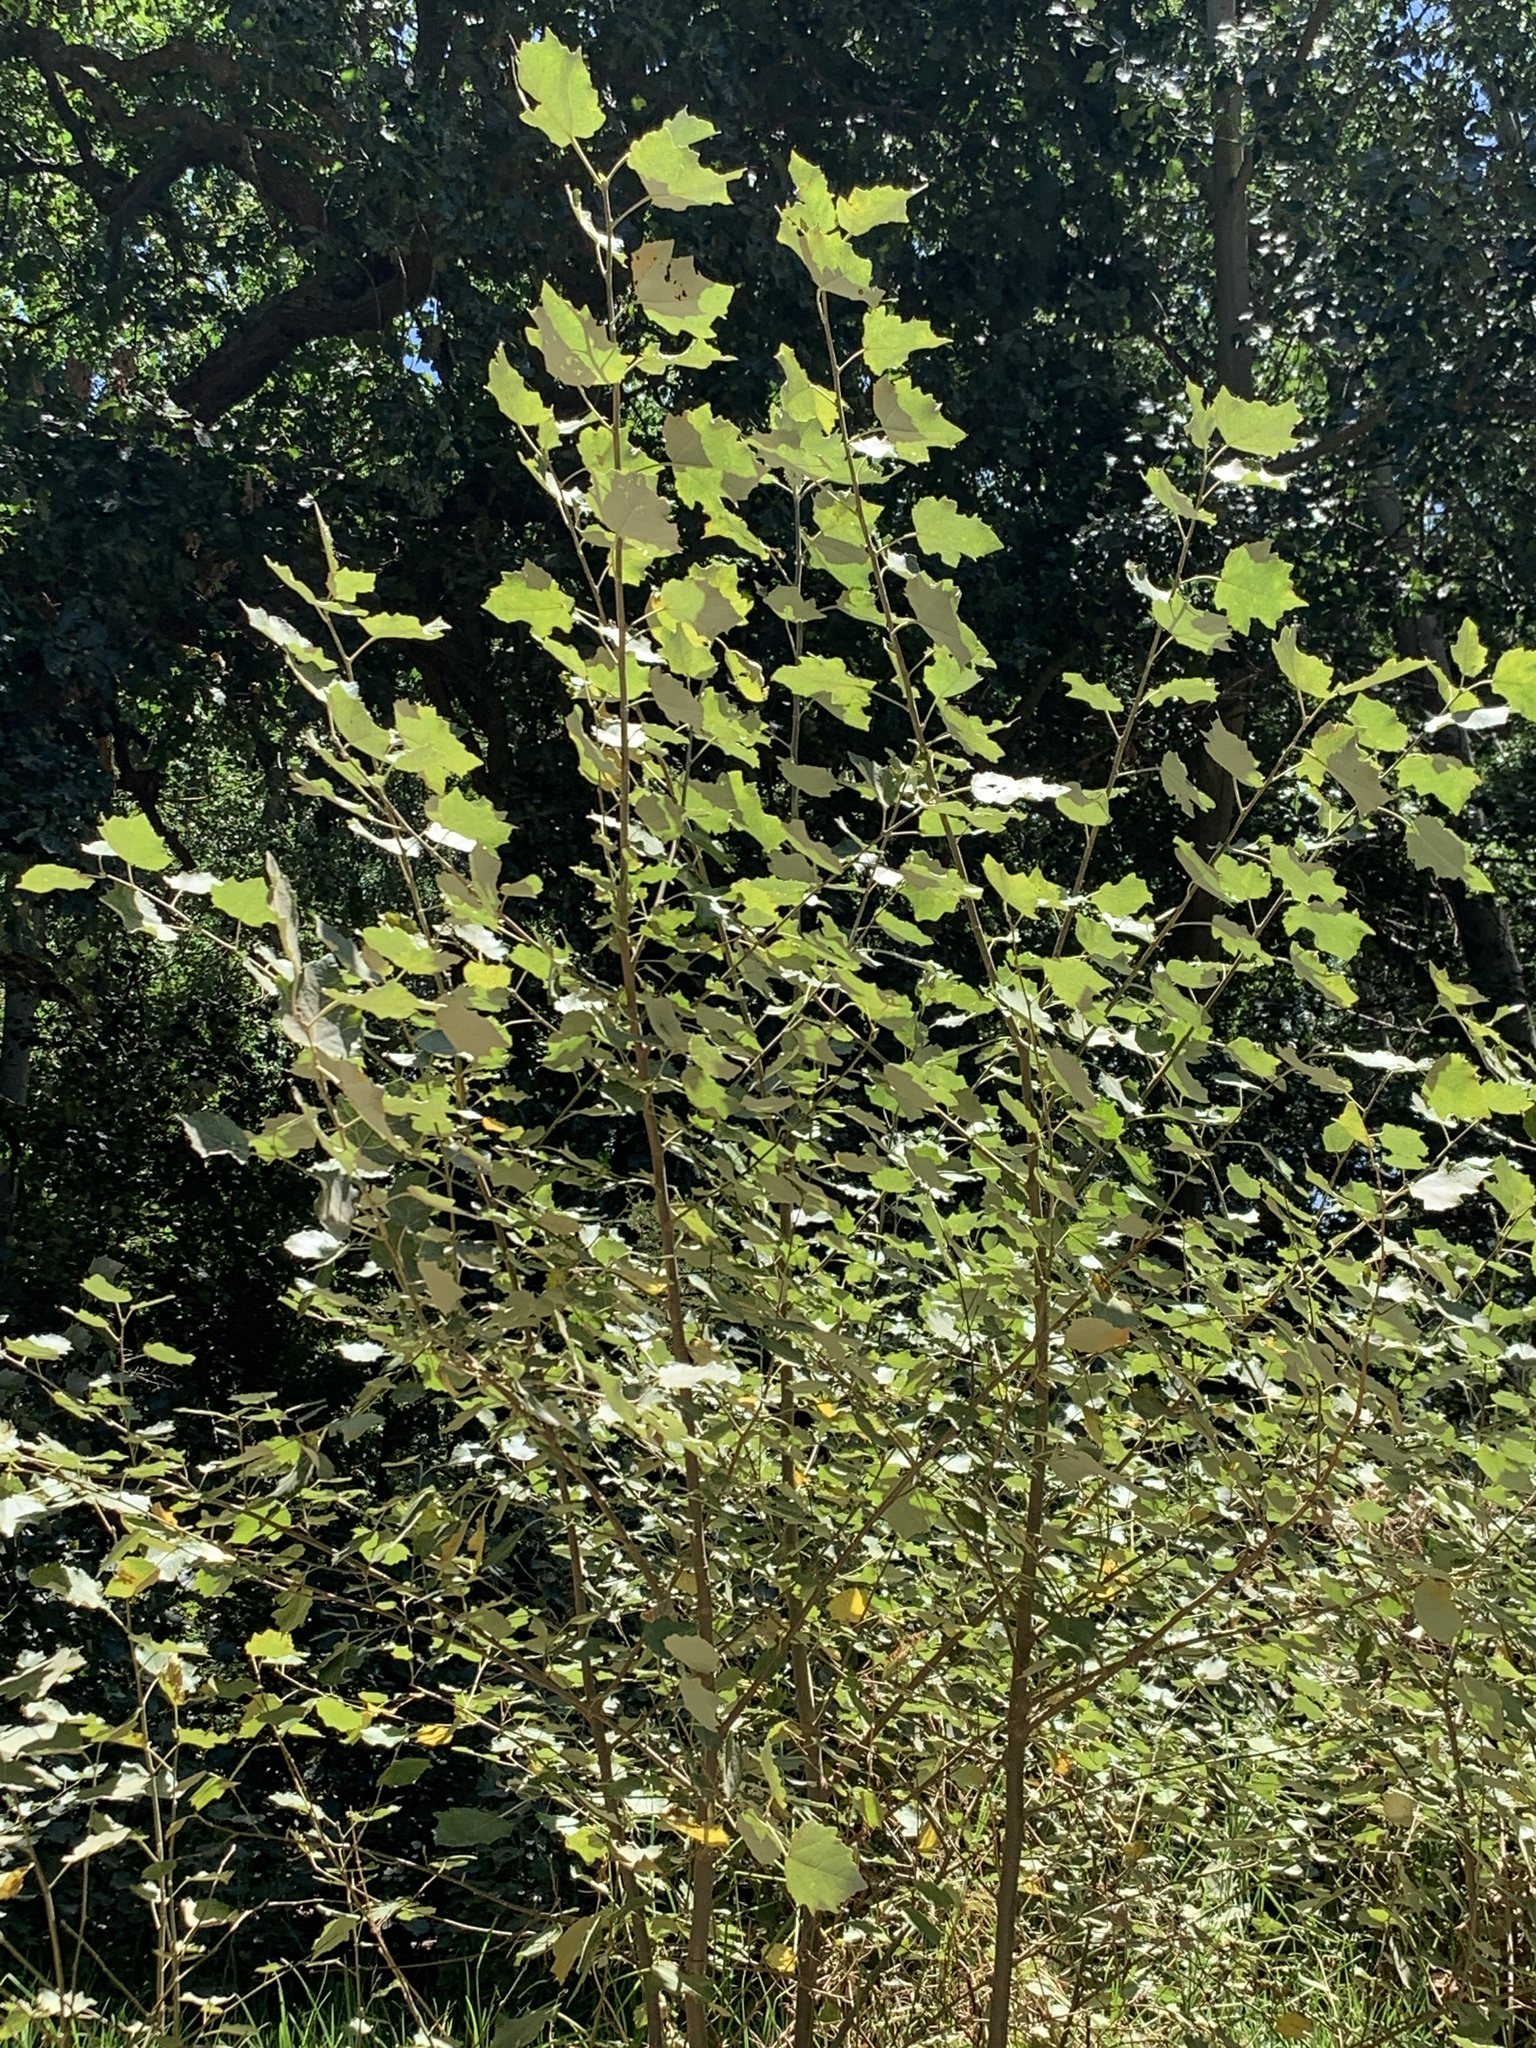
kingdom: Plantae
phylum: Tracheophyta
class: Magnoliopsida
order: Malpighiales
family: Salicaceae
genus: Populus
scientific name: Populus canescens
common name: Gray poplar
